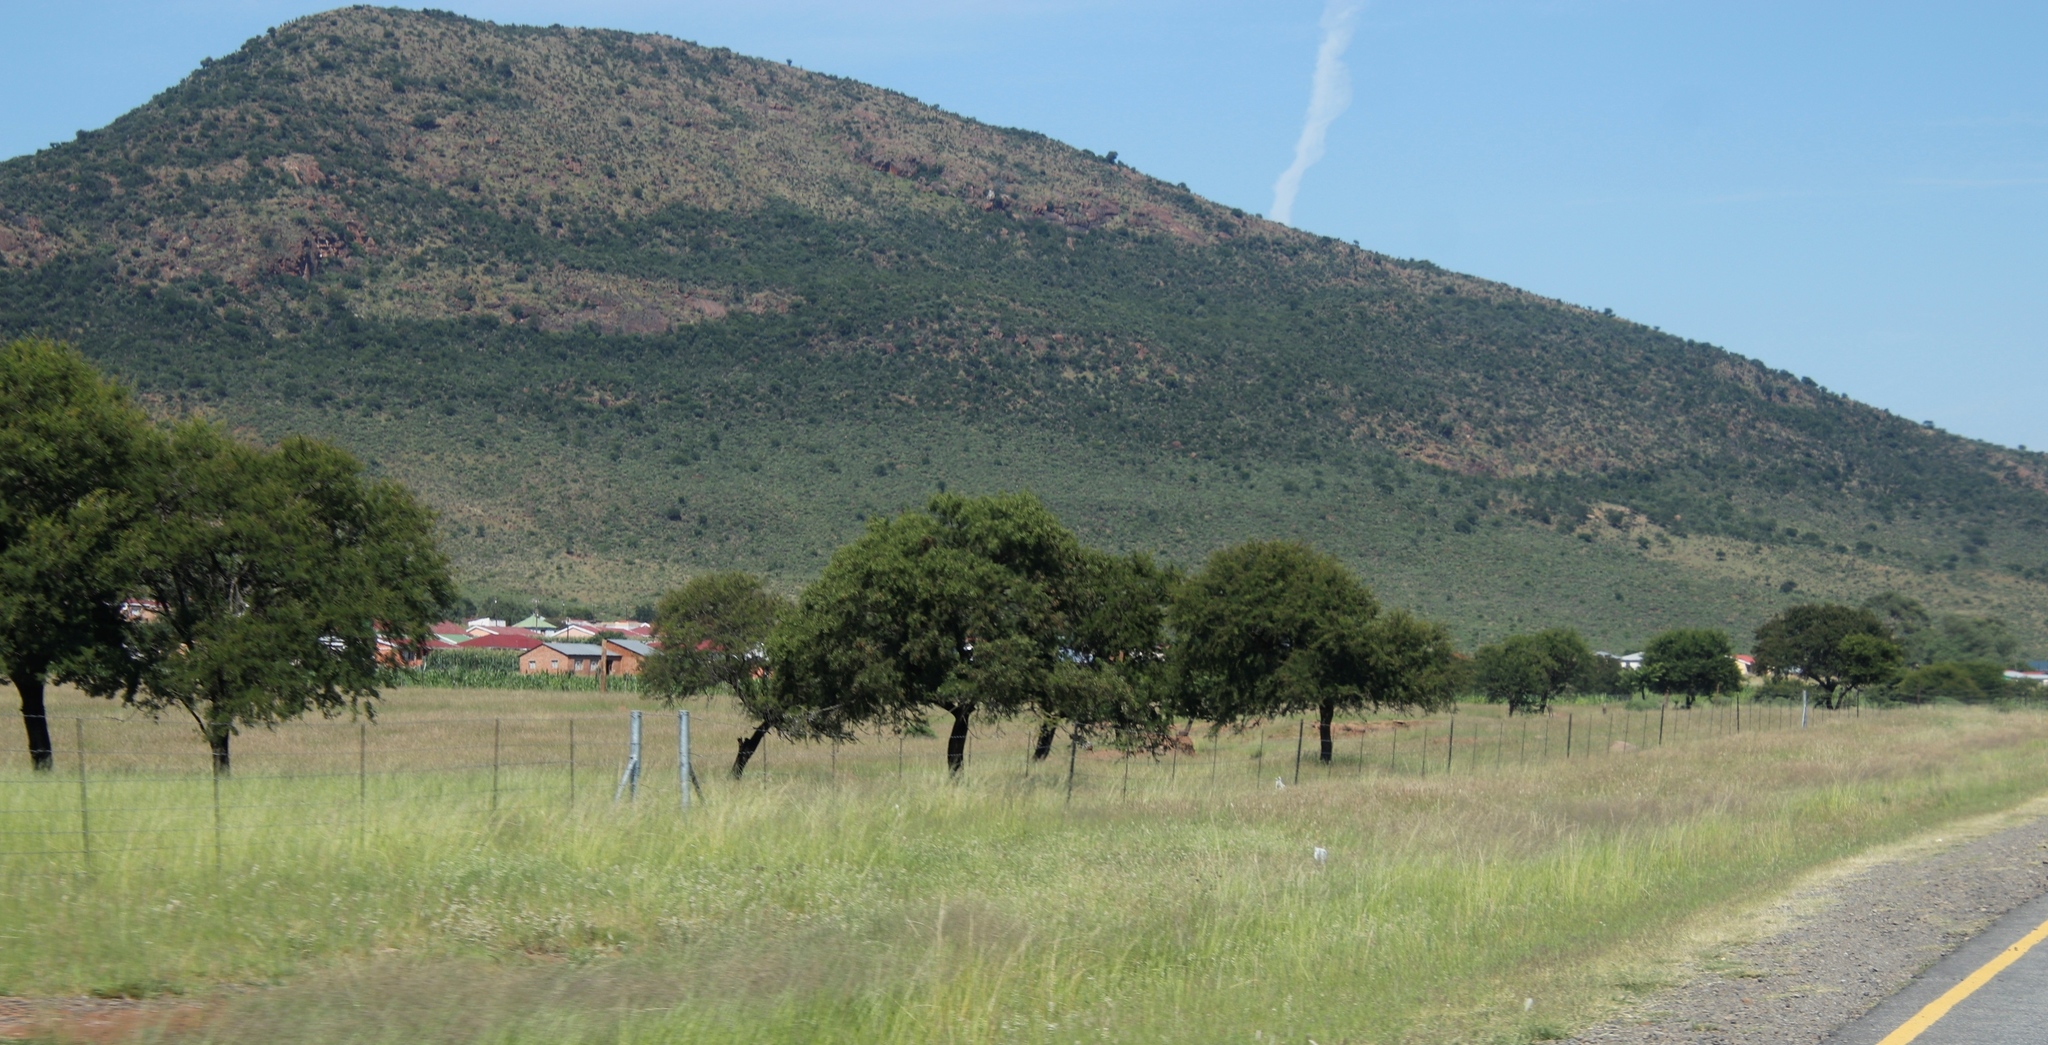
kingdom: Plantae
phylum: Tracheophyta
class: Magnoliopsida
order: Fabales
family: Fabaceae
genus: Vachellia
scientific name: Vachellia karroo
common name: Sweet thorn
